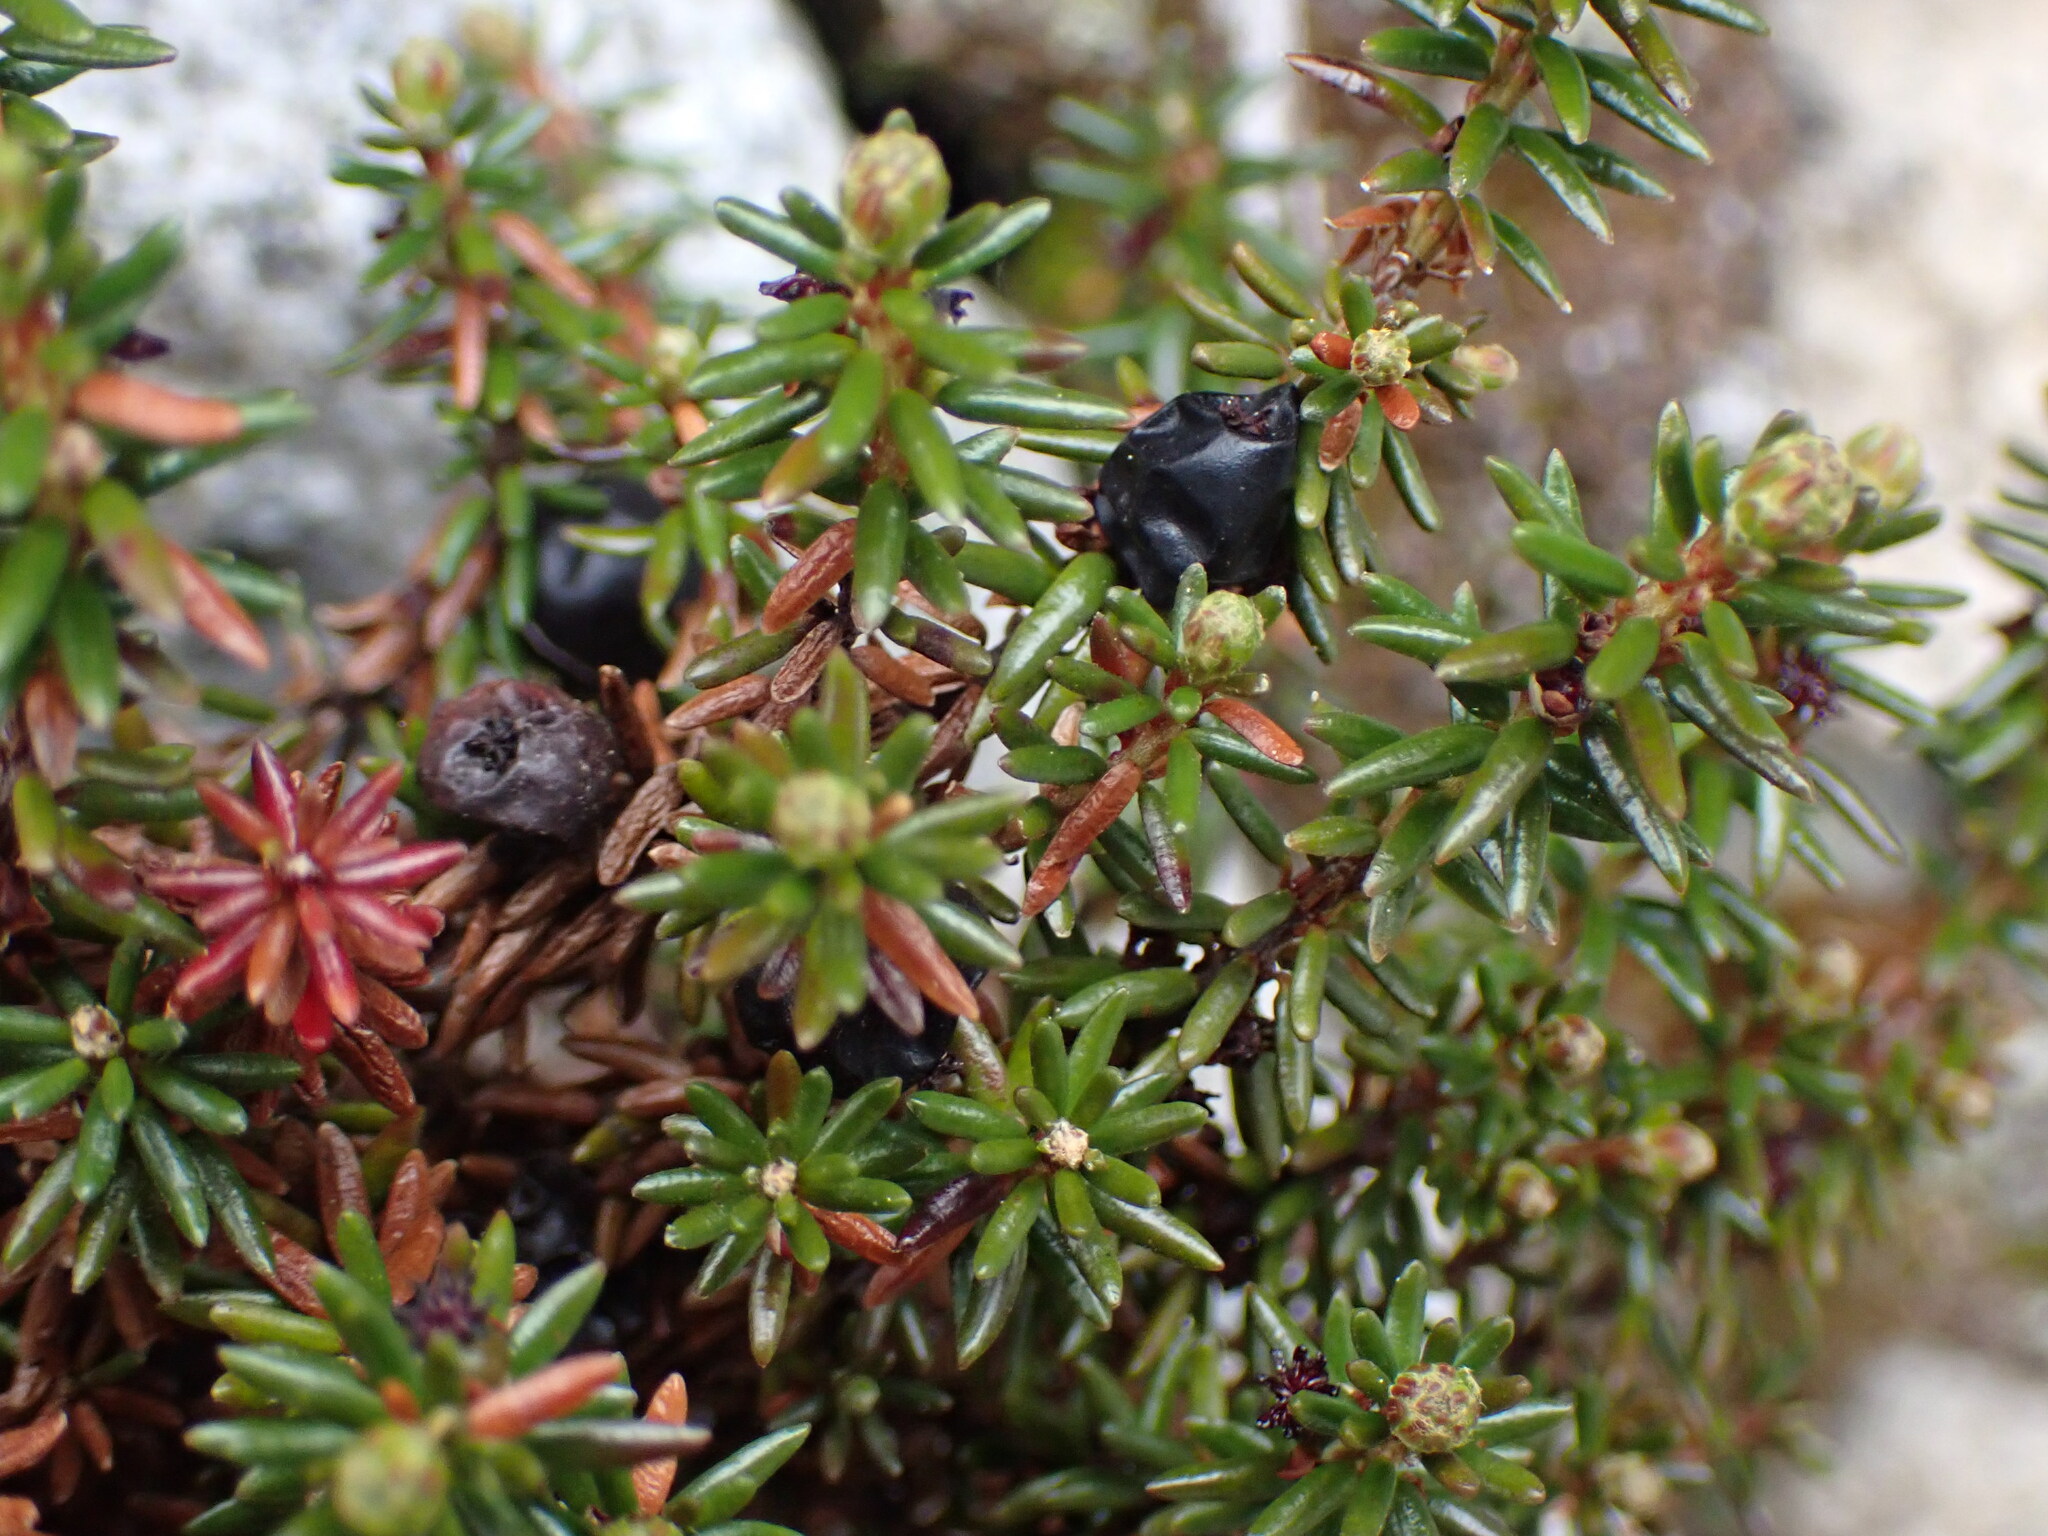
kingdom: Plantae
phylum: Tracheophyta
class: Magnoliopsida
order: Ericales
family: Ericaceae
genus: Empetrum
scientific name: Empetrum nigrum
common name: Black crowberry
